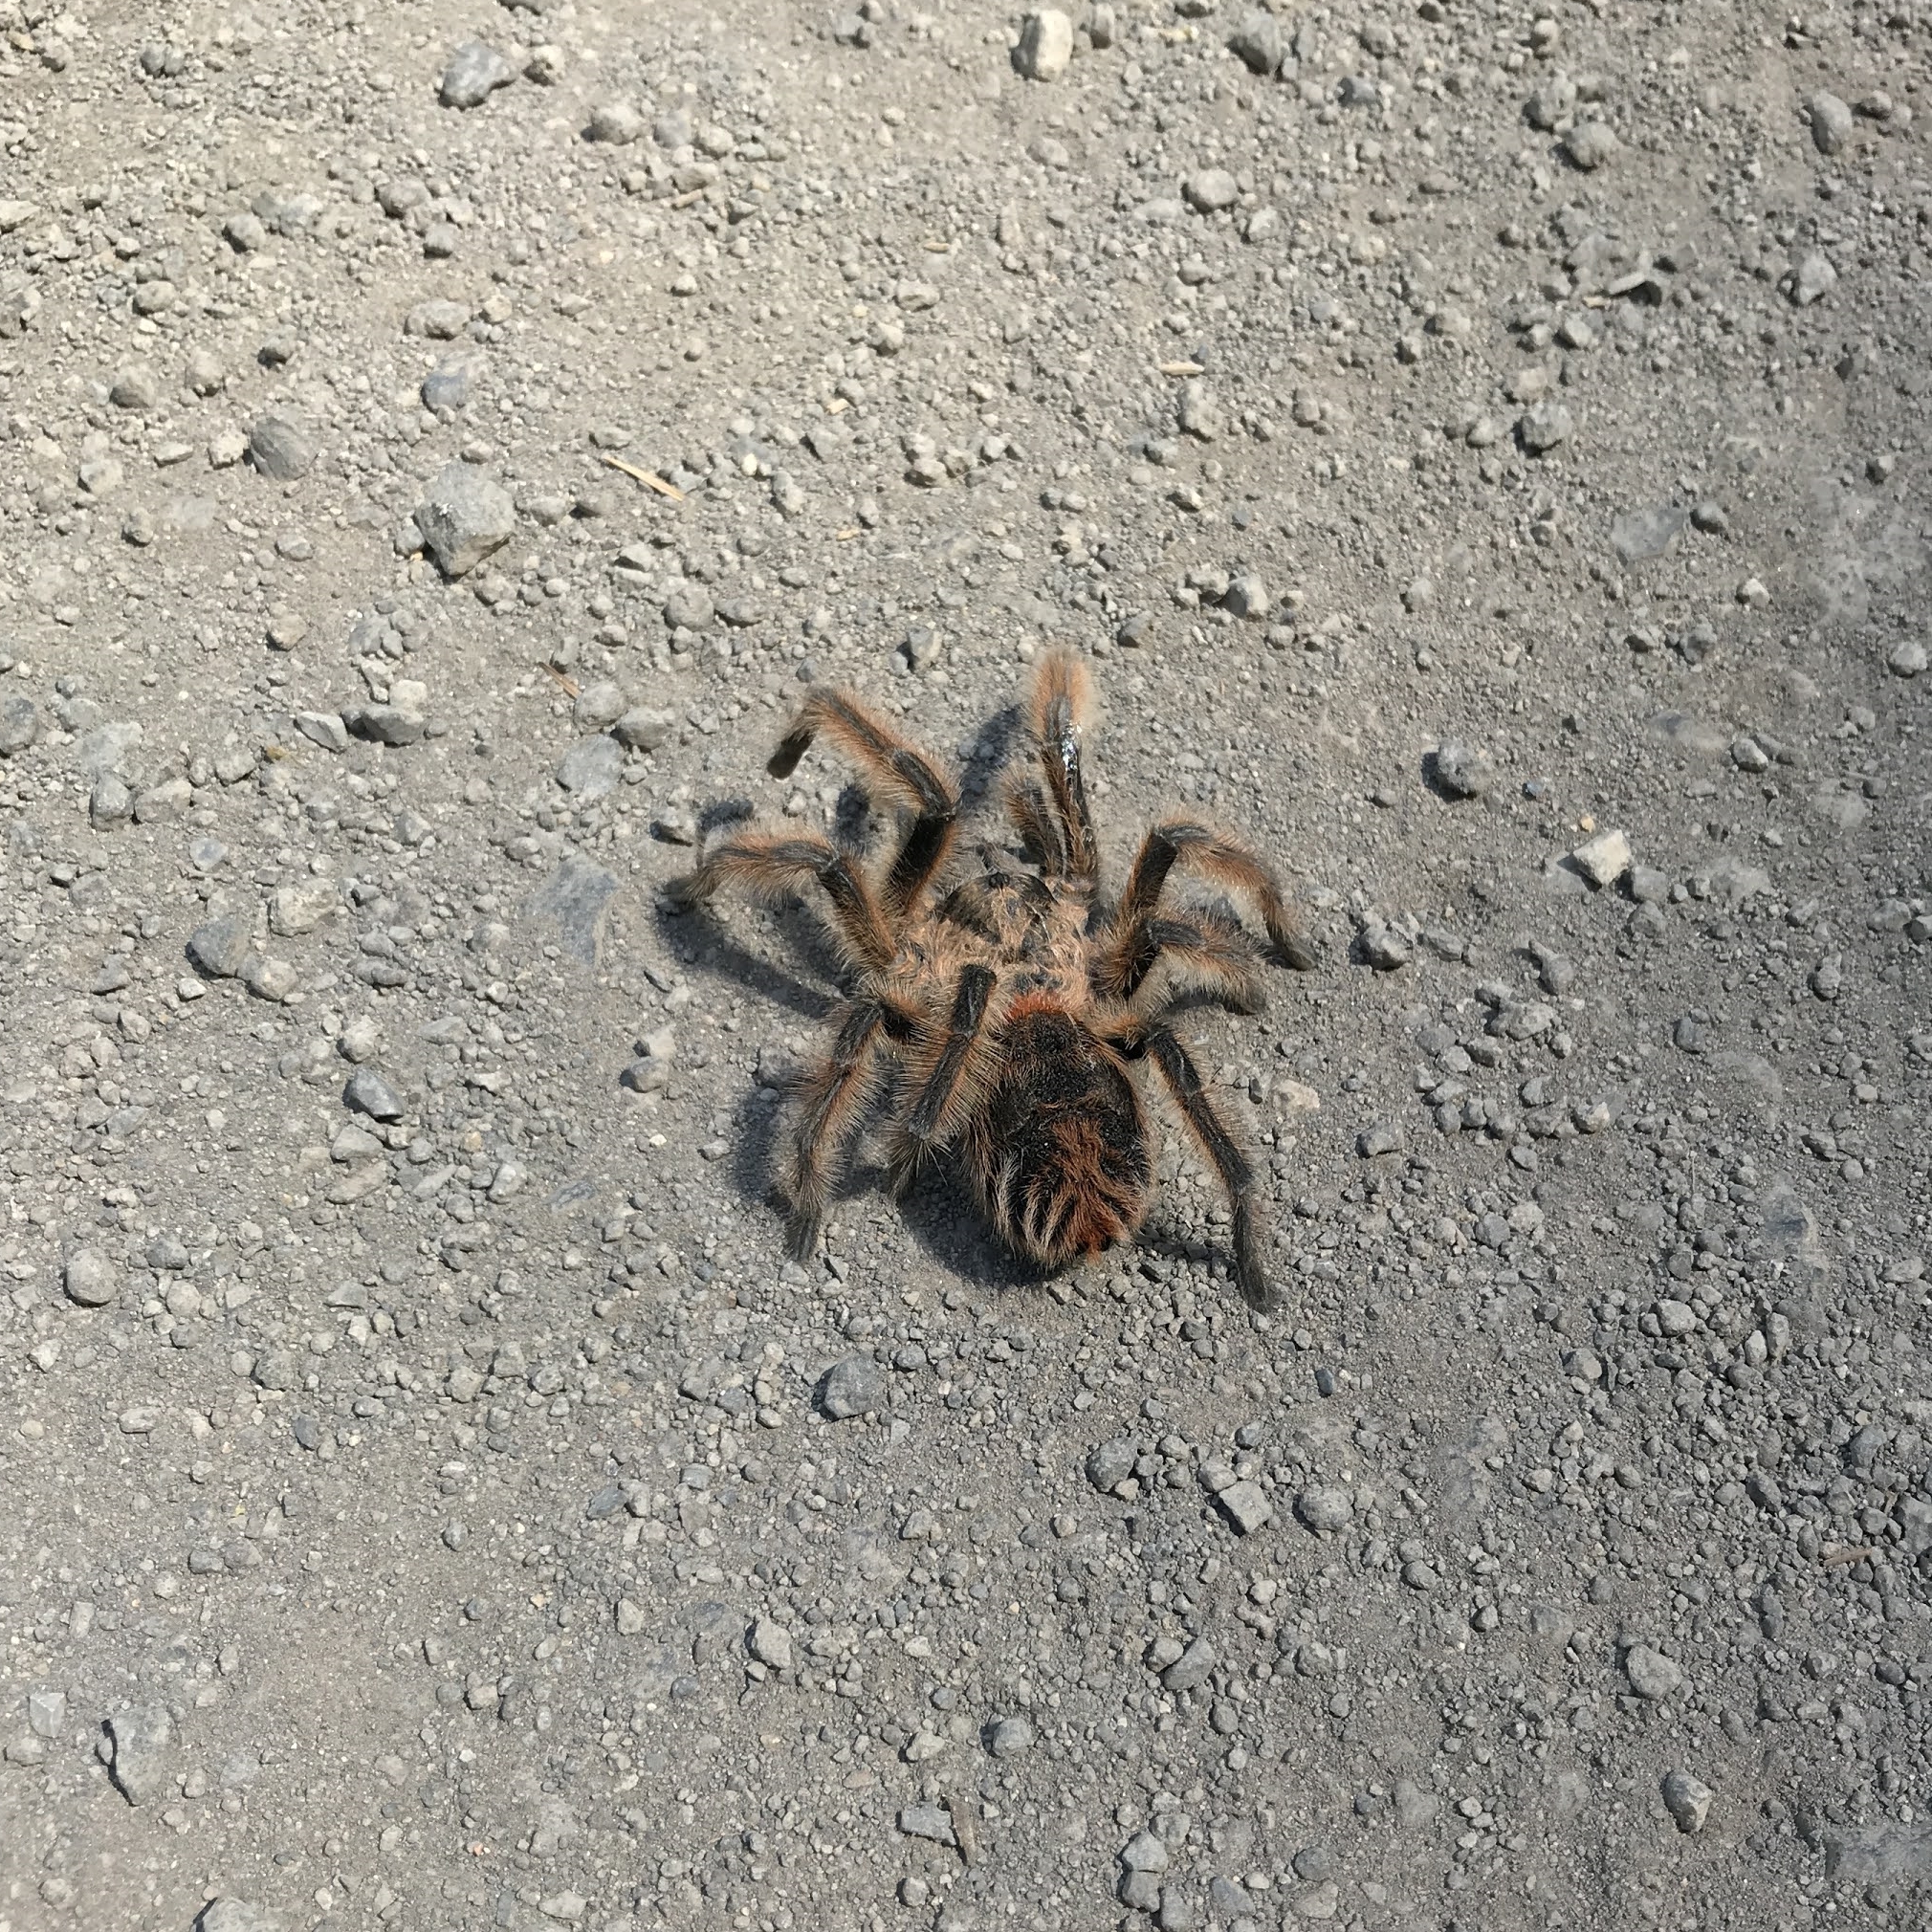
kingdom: Animalia
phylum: Arthropoda
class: Arachnida
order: Araneae
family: Theraphosidae
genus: Phrixotrichus
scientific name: Phrixotrichus vulpinus
